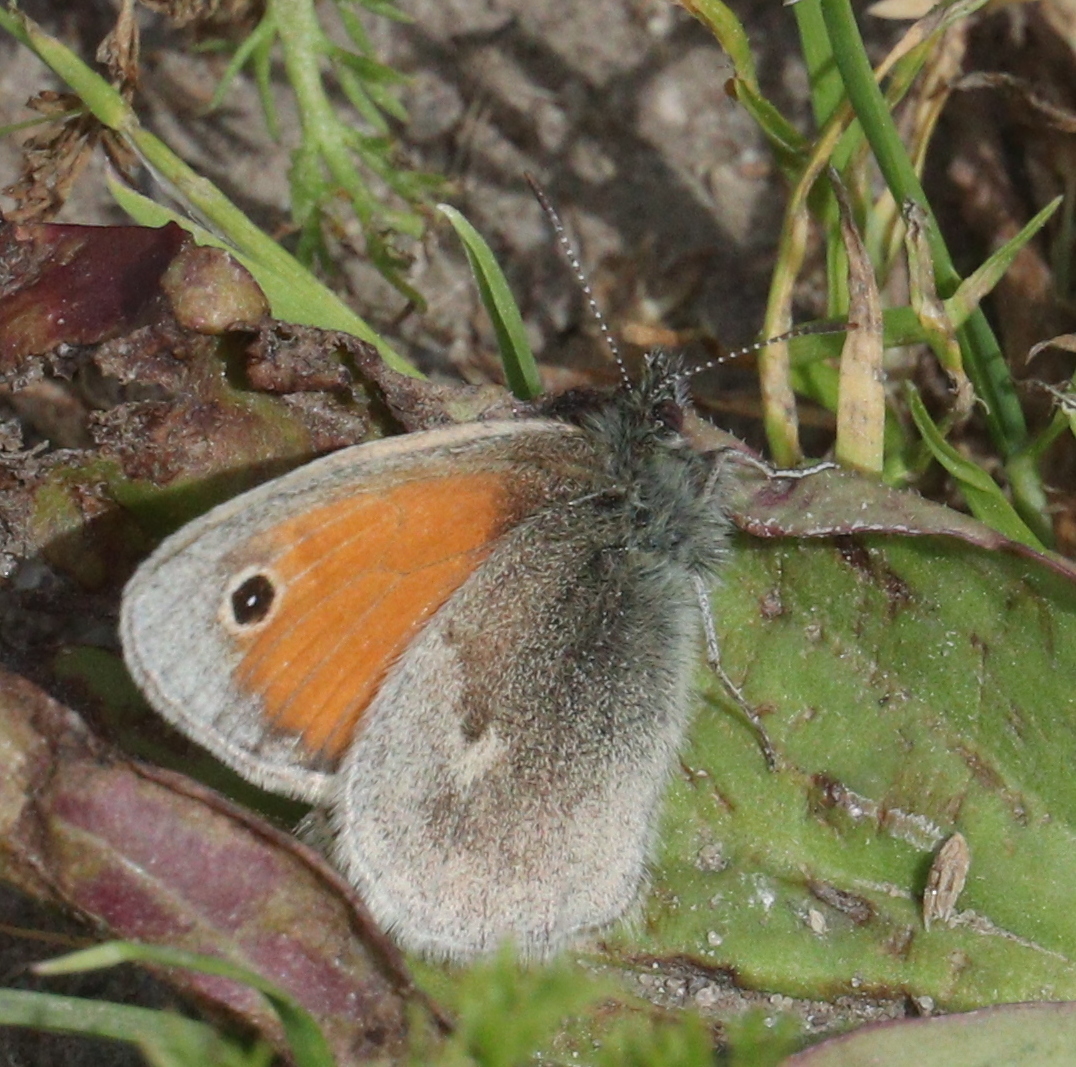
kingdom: Animalia
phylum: Arthropoda
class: Insecta
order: Lepidoptera
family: Nymphalidae
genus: Coenonympha
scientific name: Coenonympha pamphilus
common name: Small heath
